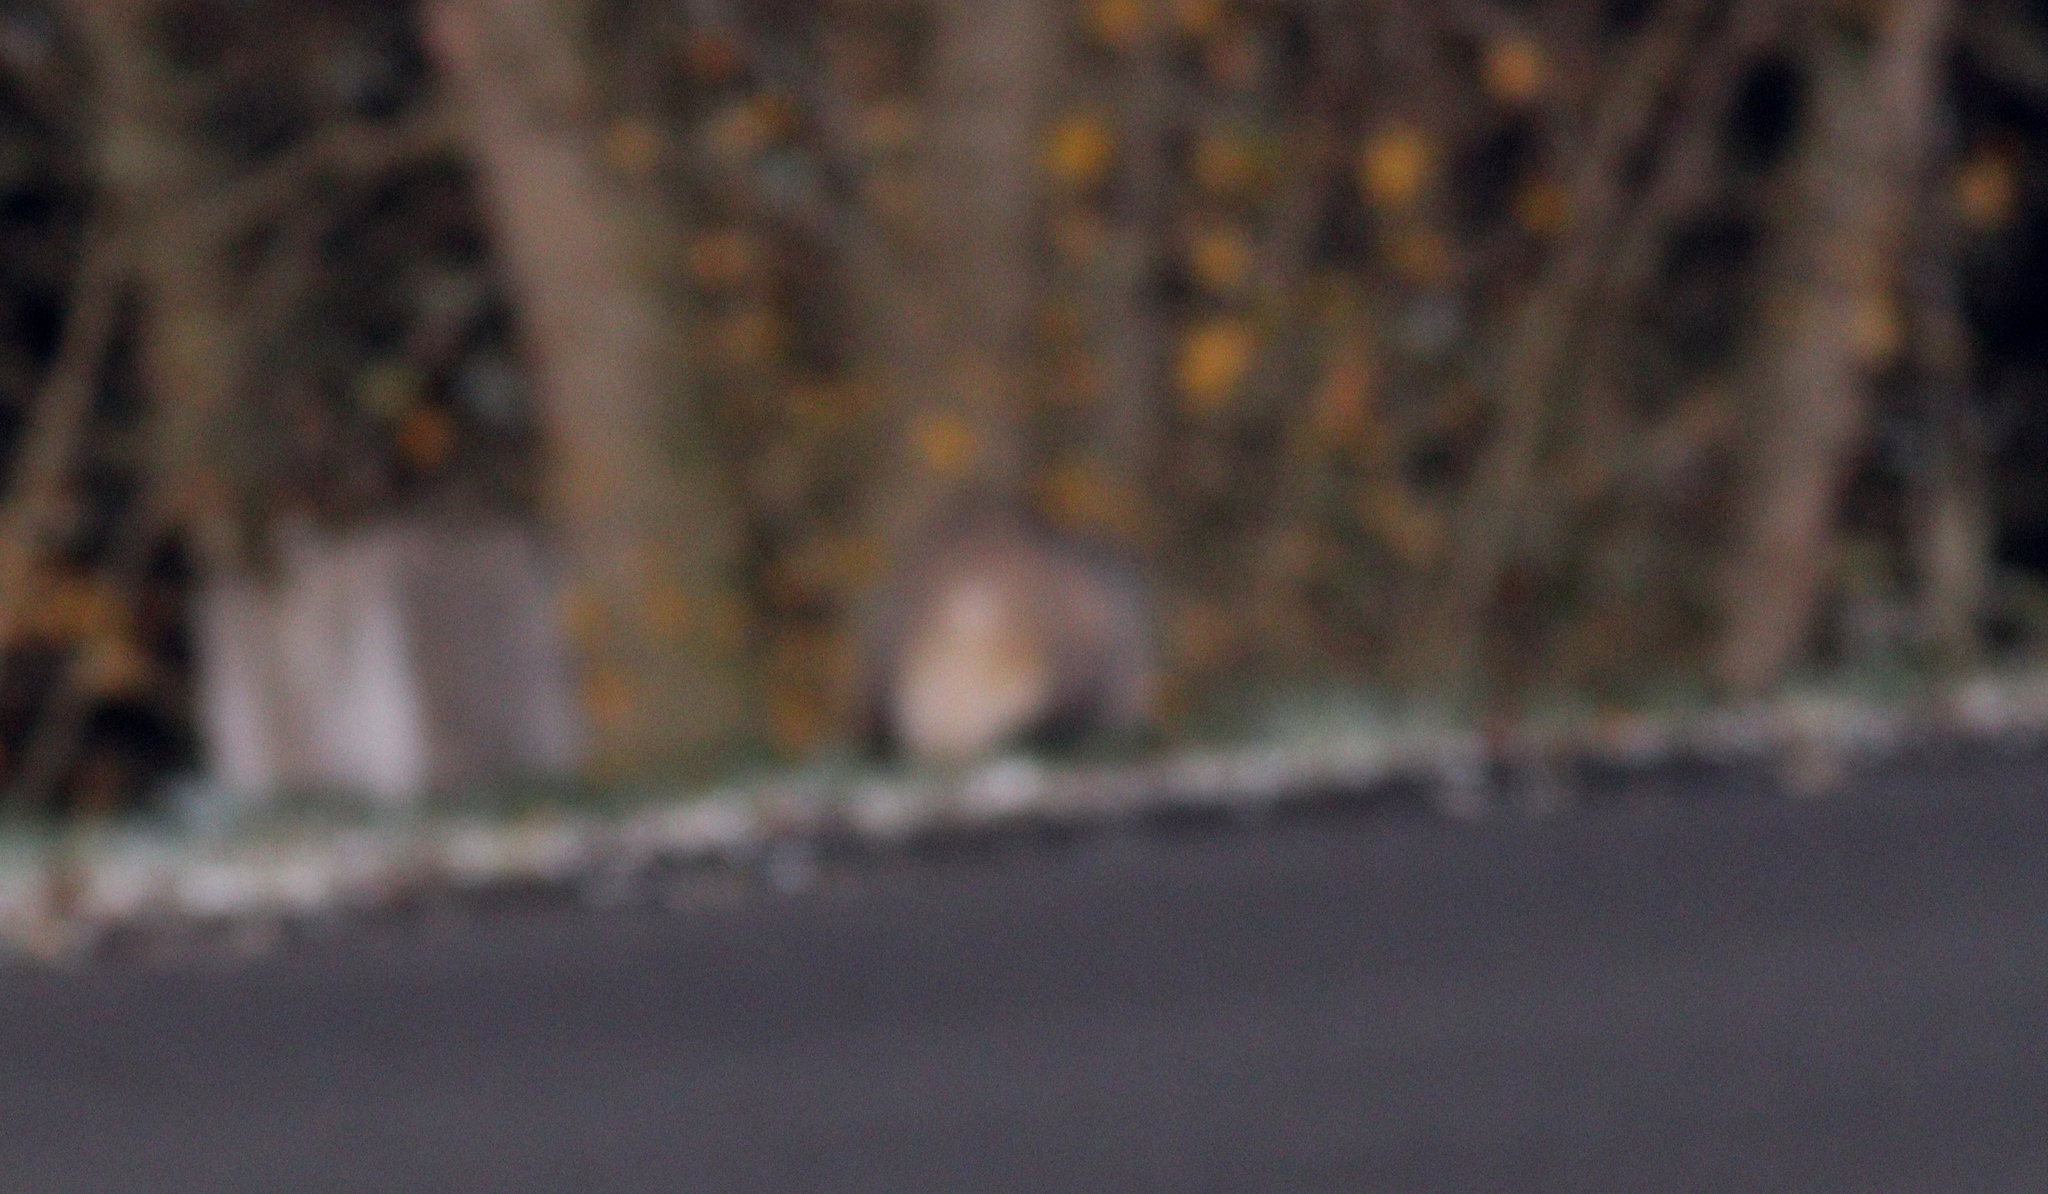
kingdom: Animalia
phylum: Chordata
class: Mammalia
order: Carnivora
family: Mustelidae
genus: Meles
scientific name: Meles meles
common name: Eurasian badger
